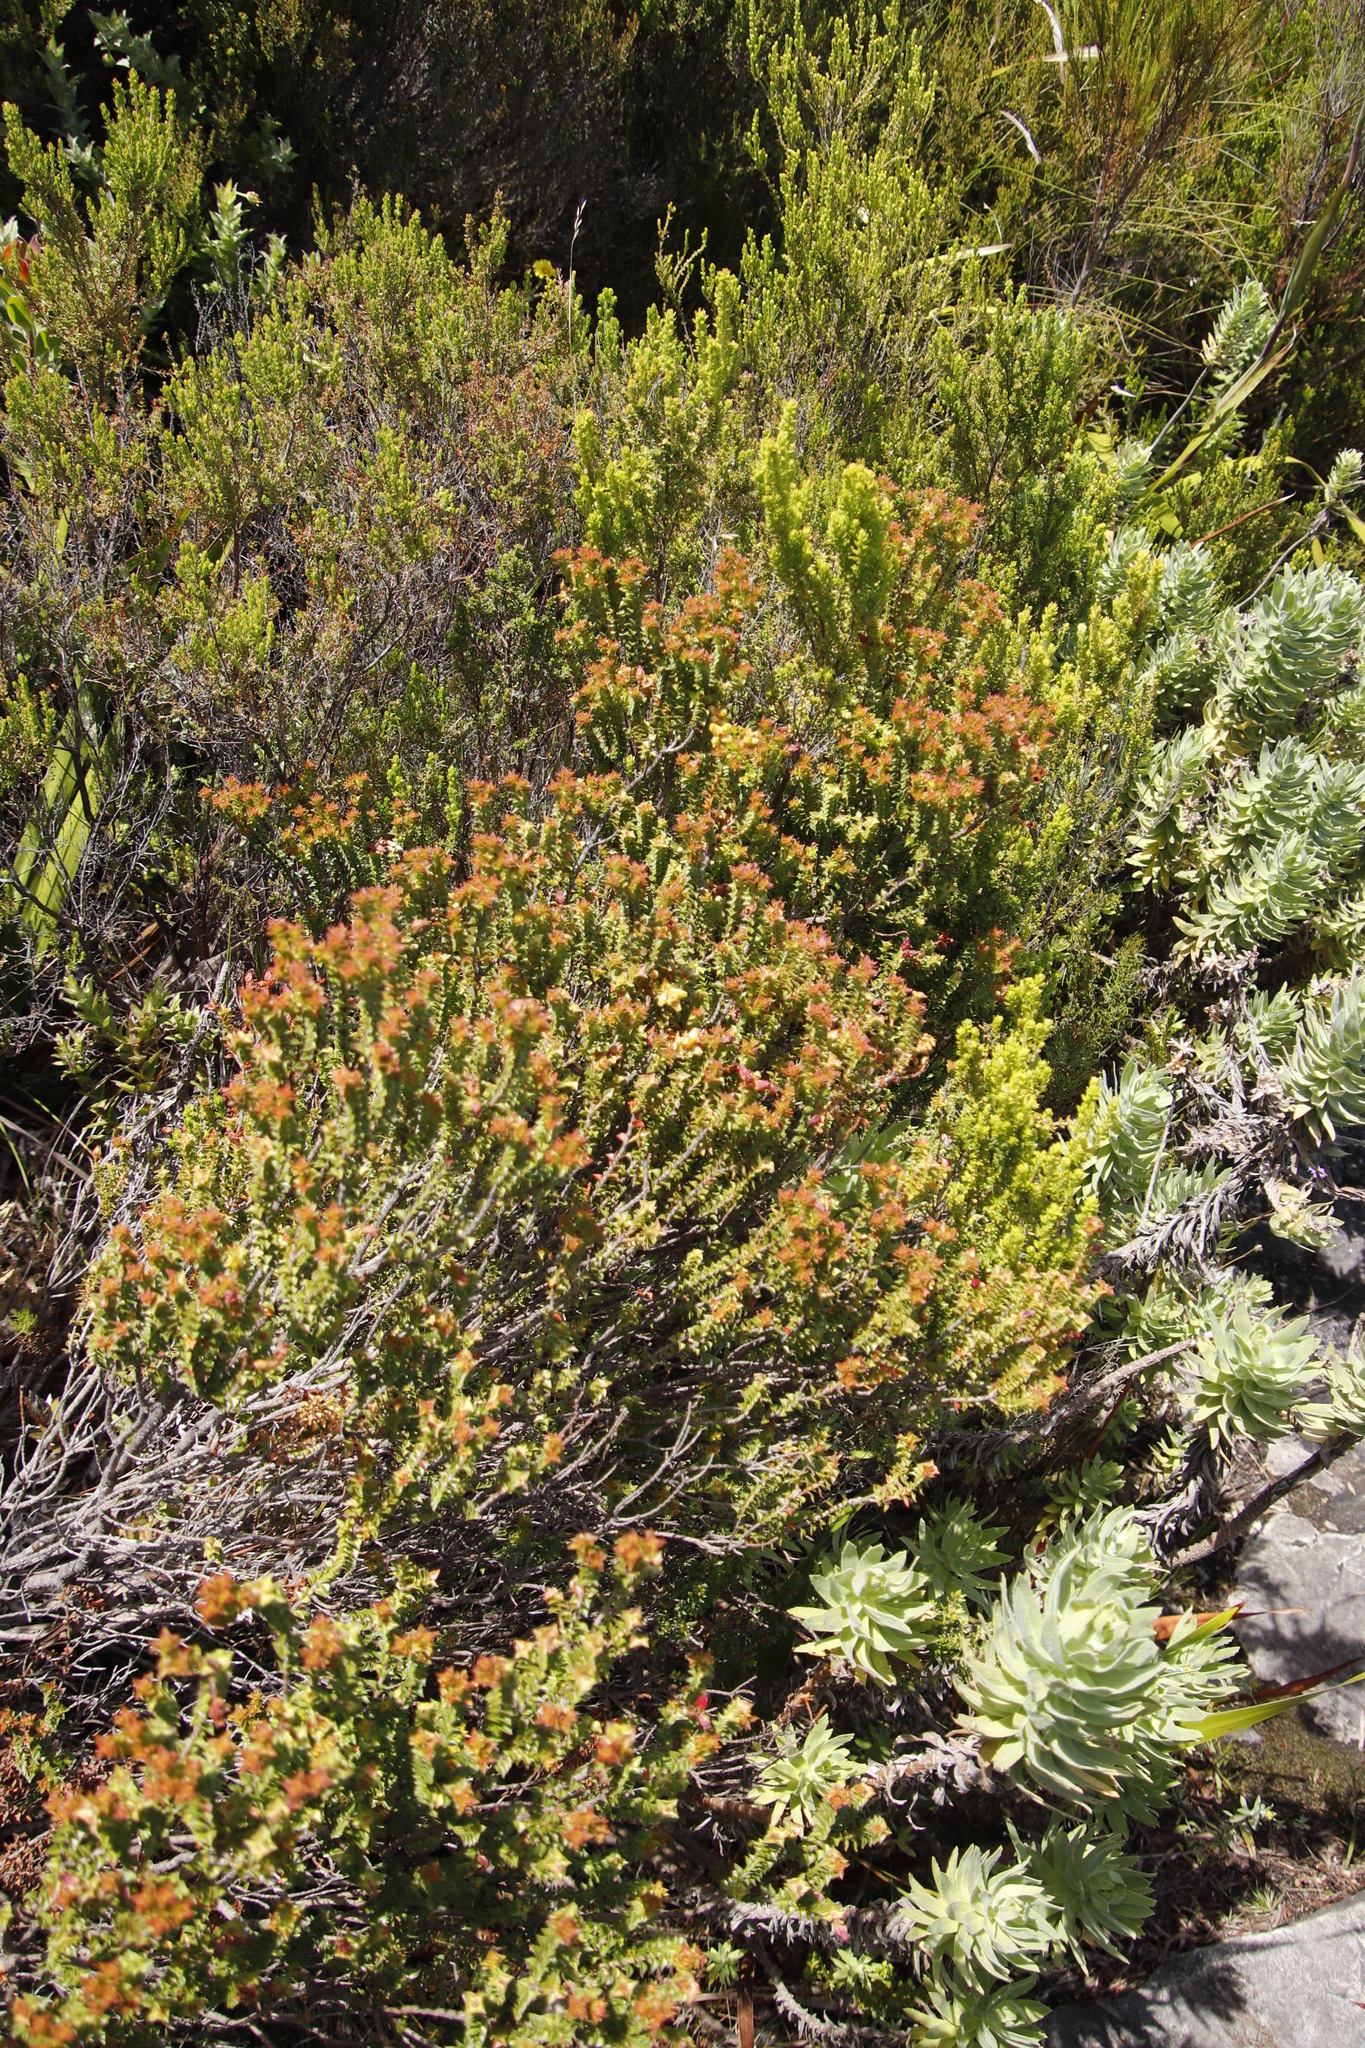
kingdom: Plantae
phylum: Tracheophyta
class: Magnoliopsida
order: Myrtales
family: Penaeaceae
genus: Penaea
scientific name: Penaea mucronata
